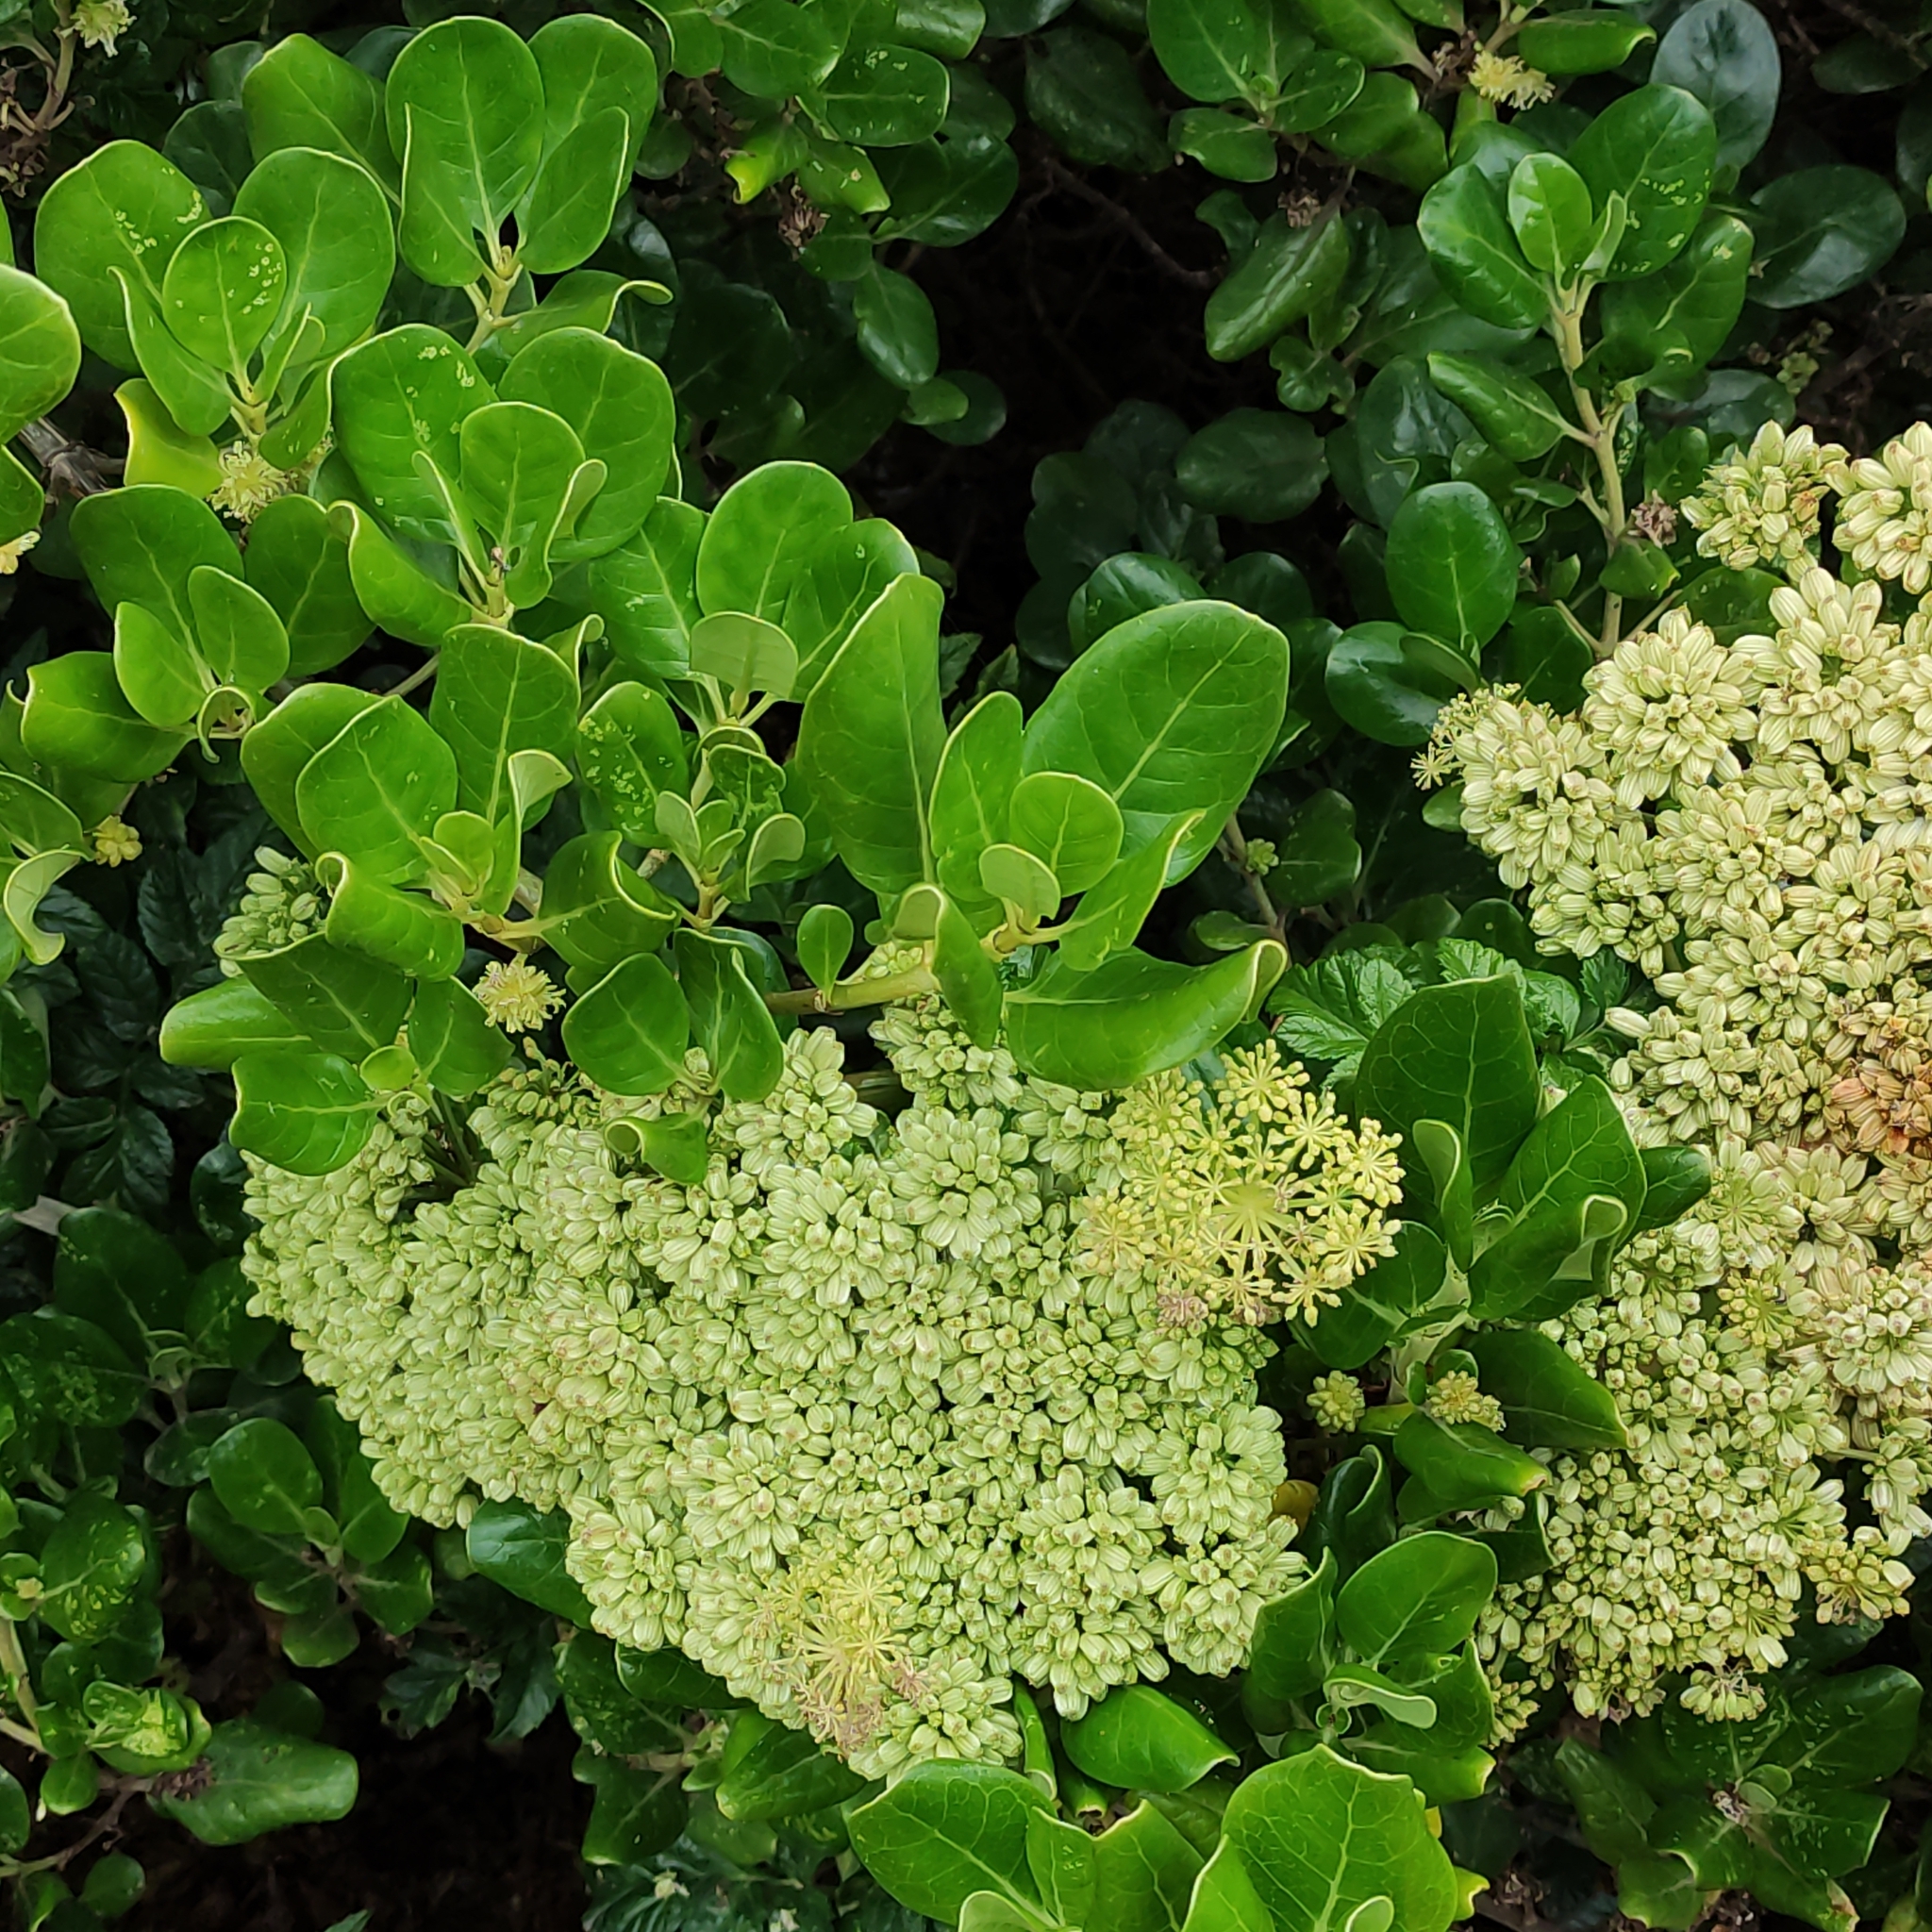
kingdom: Plantae
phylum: Tracheophyta
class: Magnoliopsida
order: Gentianales
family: Rubiaceae
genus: Coprosma
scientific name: Coprosma repens
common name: Tree bedstraw
